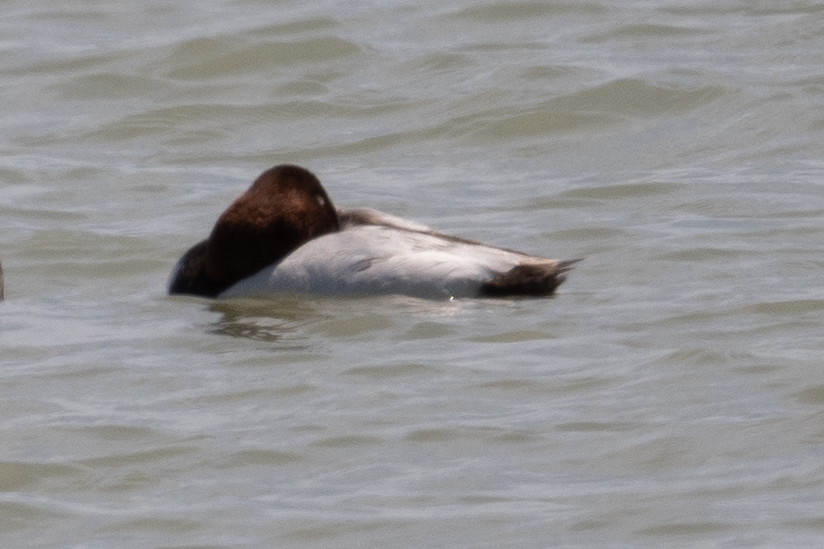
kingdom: Animalia
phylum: Chordata
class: Aves
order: Anseriformes
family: Anatidae
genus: Aythya
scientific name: Aythya valisineria
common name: Canvasback
